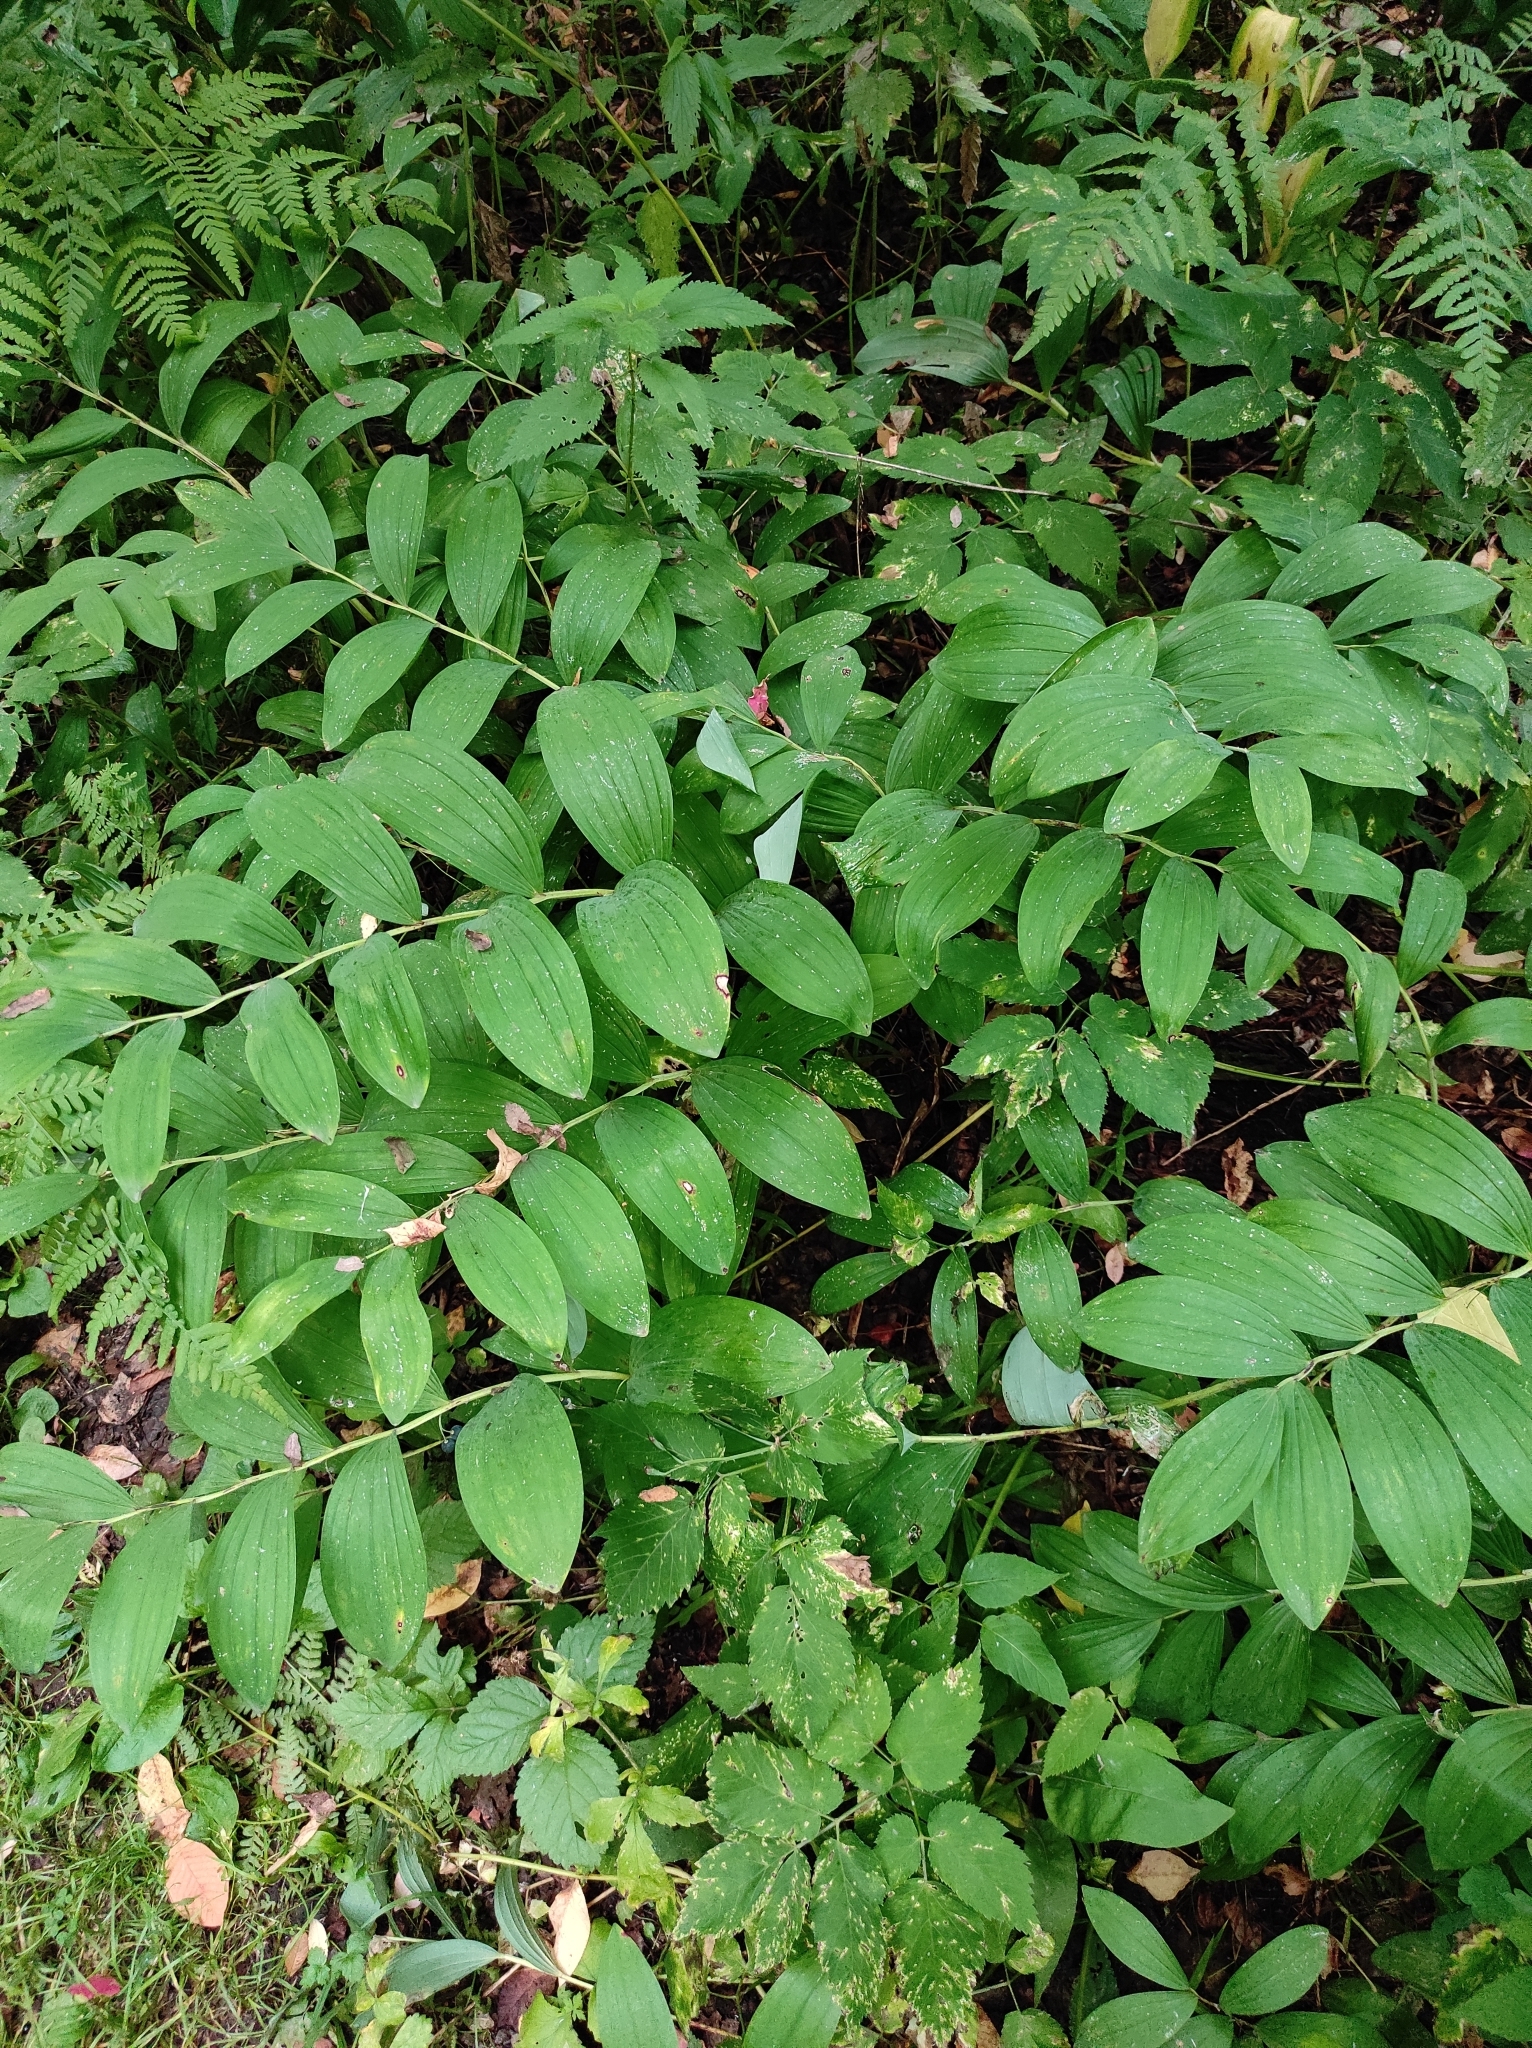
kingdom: Plantae
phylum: Tracheophyta
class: Liliopsida
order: Asparagales
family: Asparagaceae
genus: Polygonatum
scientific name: Polygonatum odoratum
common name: Angular solomon's-seal
